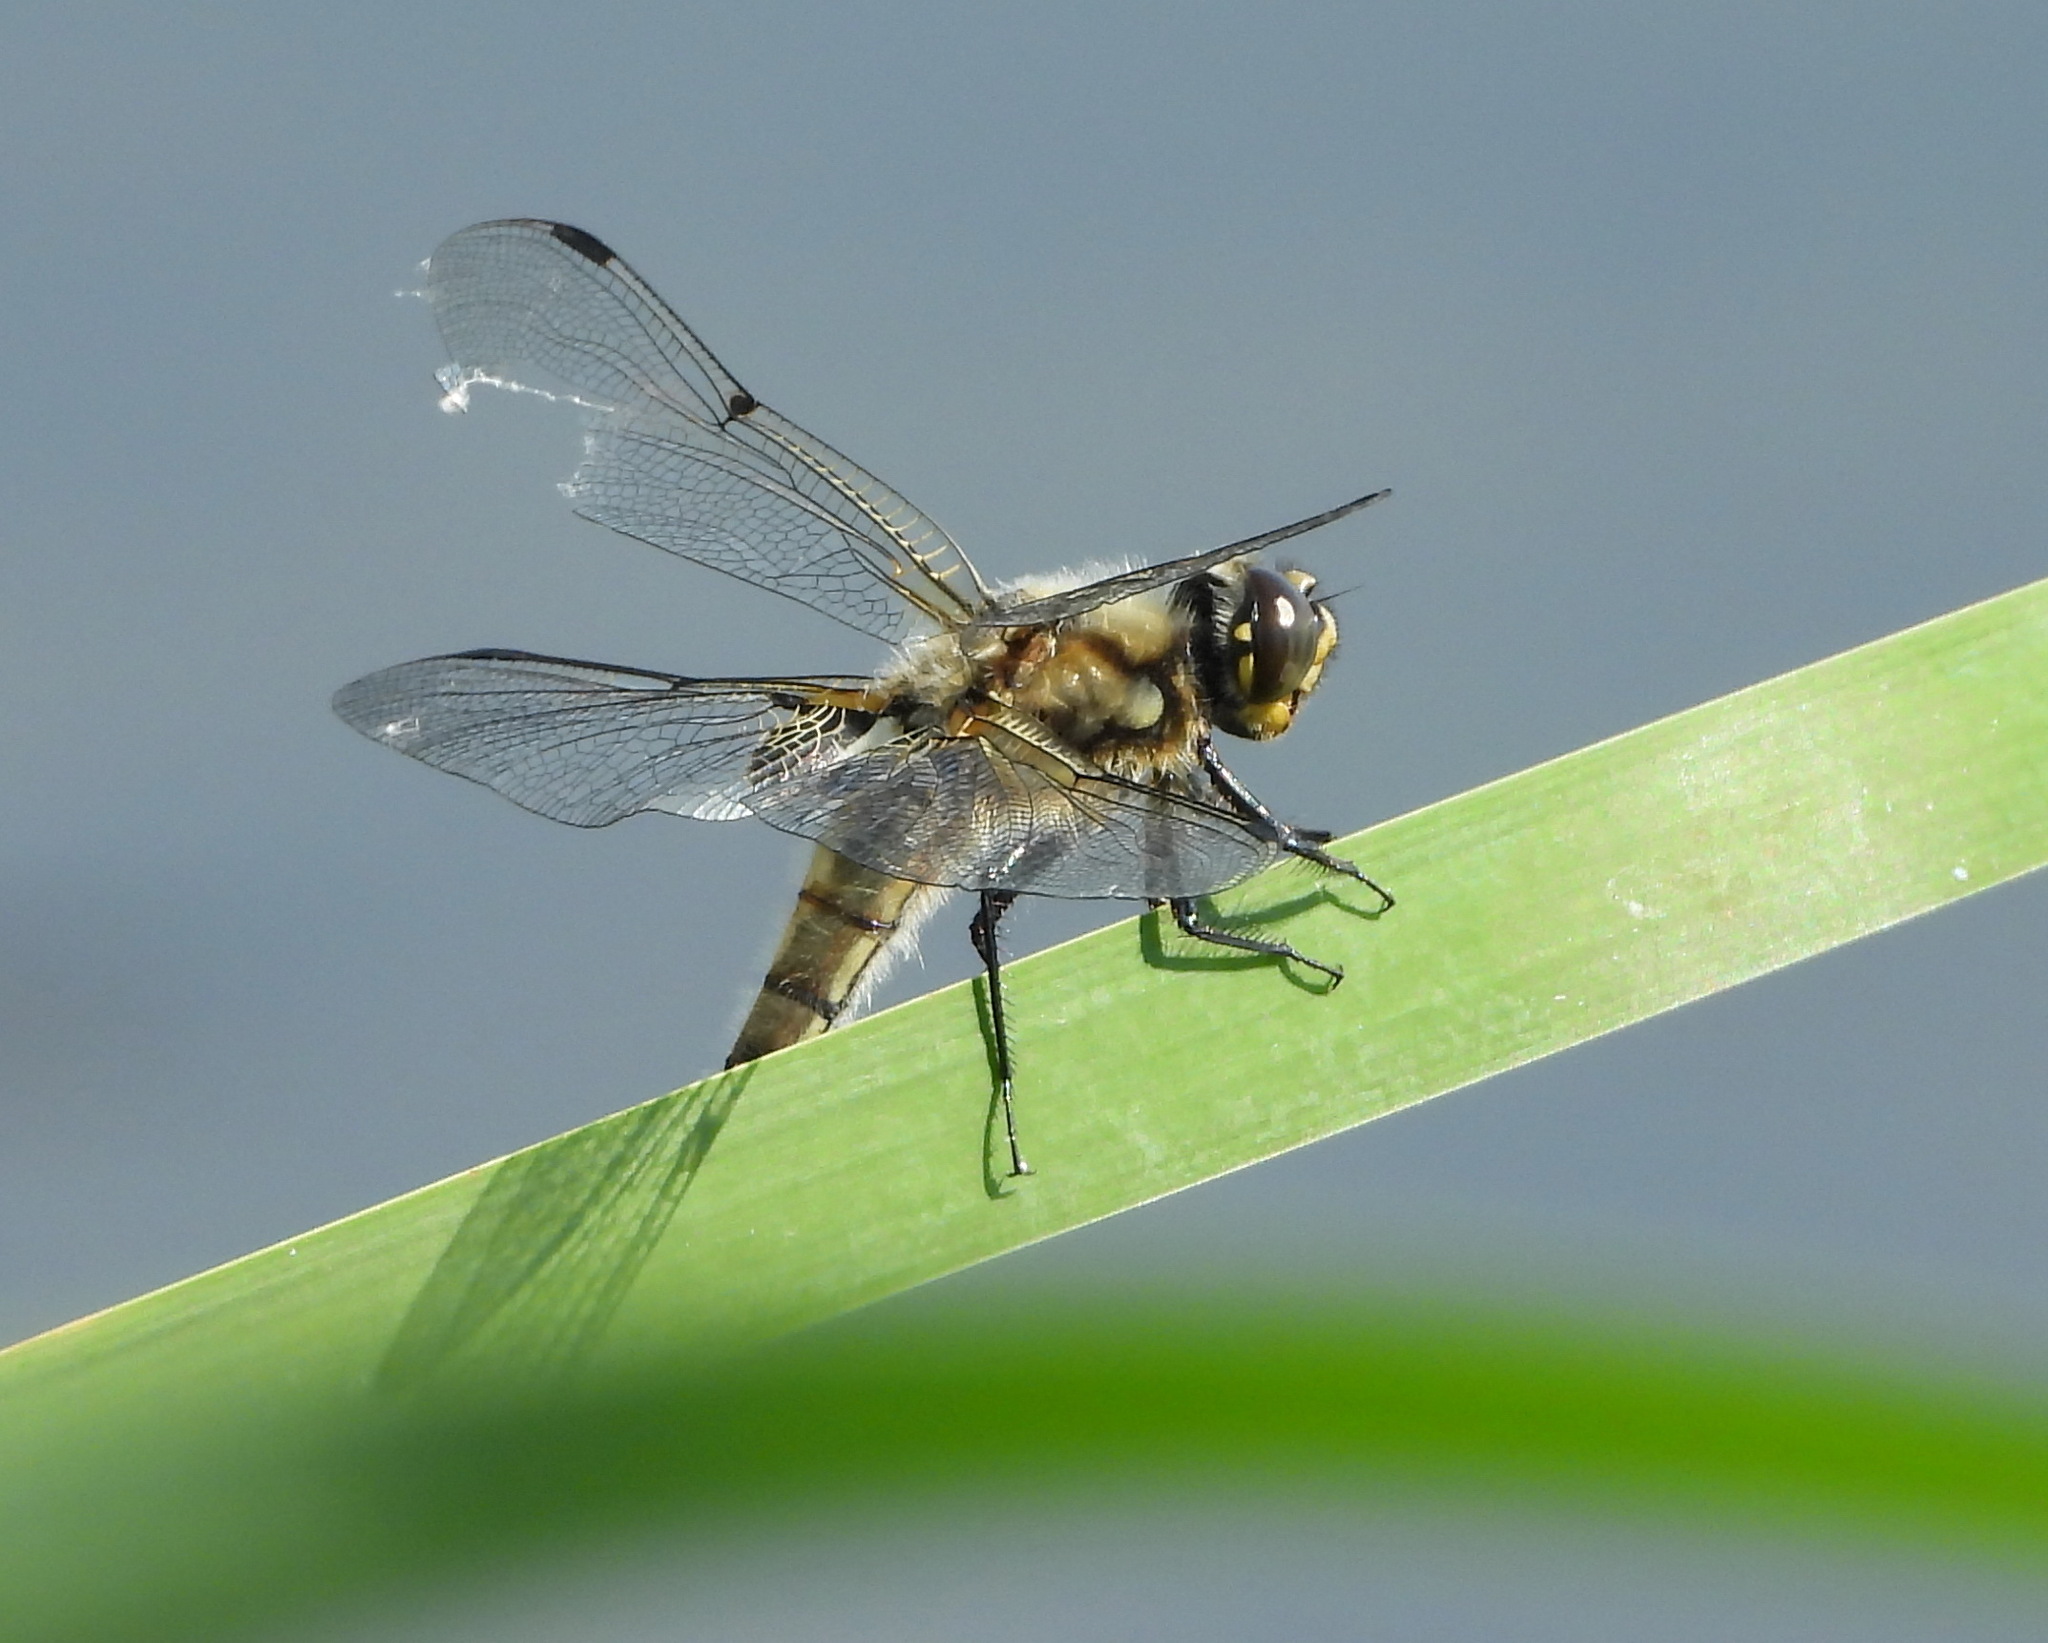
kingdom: Animalia
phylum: Arthropoda
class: Insecta
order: Odonata
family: Libellulidae
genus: Libellula
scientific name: Libellula quadrimaculata
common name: Four-spotted chaser
